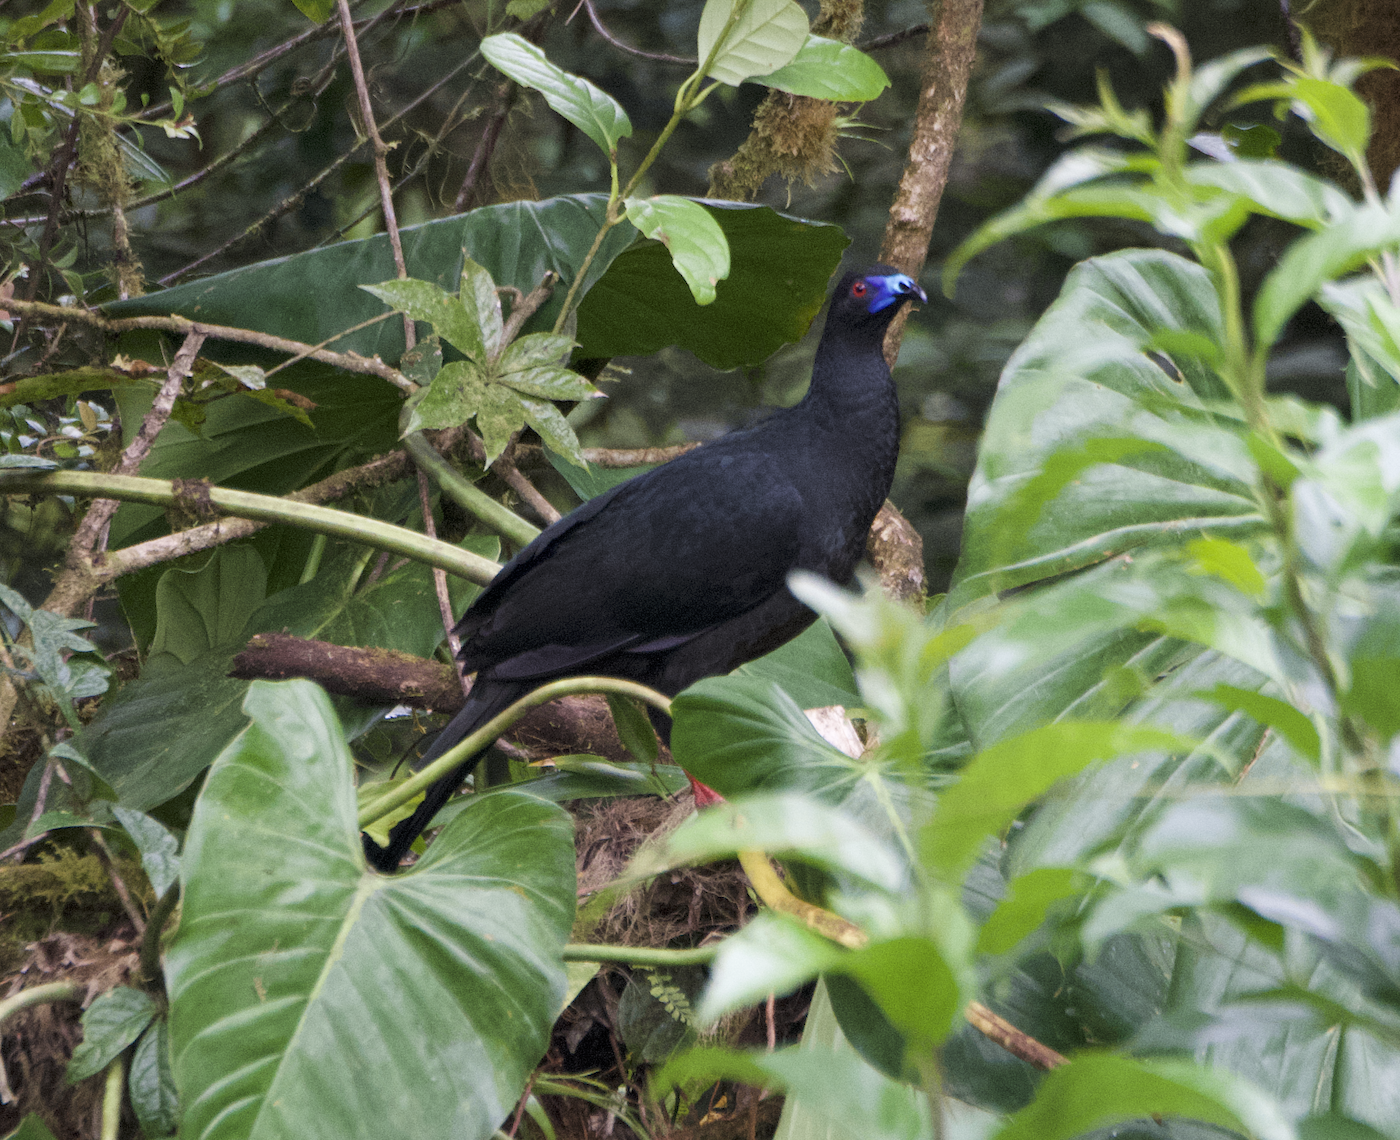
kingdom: Animalia
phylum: Chordata
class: Aves
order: Galliformes
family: Cracidae
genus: Chamaepetes
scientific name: Chamaepetes unicolor
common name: Black guan
